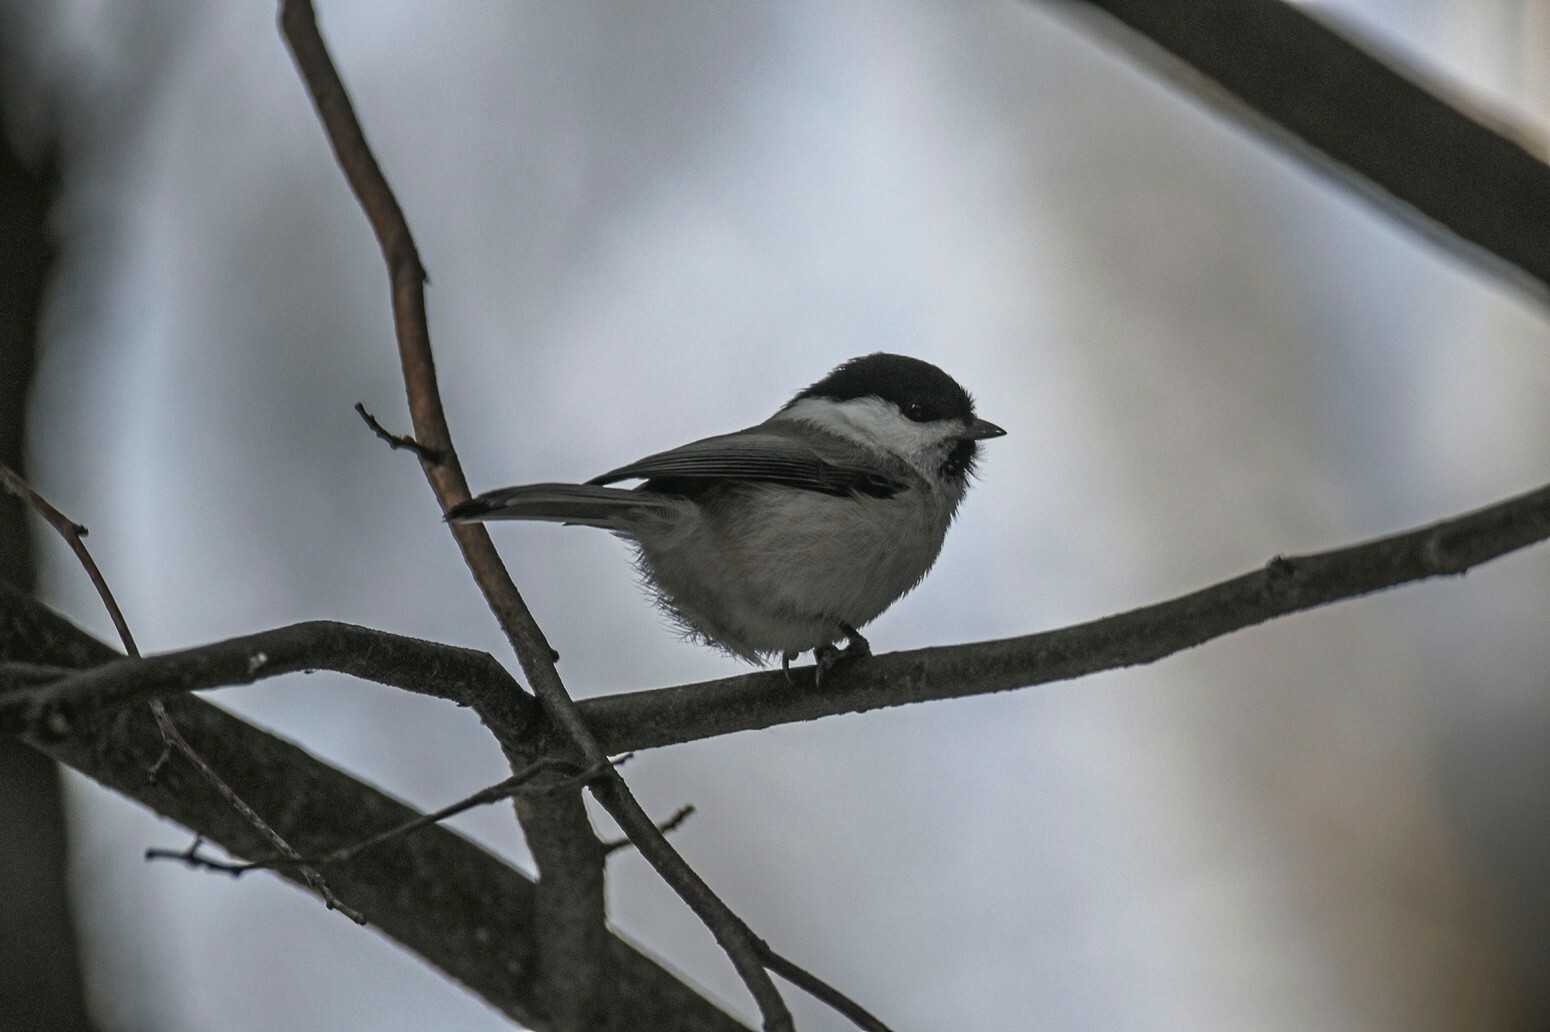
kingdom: Animalia
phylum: Chordata
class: Aves
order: Passeriformes
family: Paridae
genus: Poecile
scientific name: Poecile montanus
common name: Willow tit
